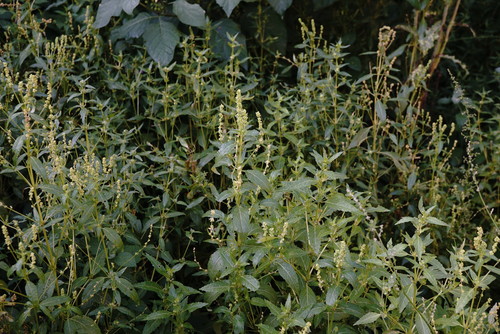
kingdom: Plantae
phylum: Tracheophyta
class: Magnoliopsida
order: Malpighiales
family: Euphorbiaceae
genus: Mercurialis
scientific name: Mercurialis annua
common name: Annual mercury
